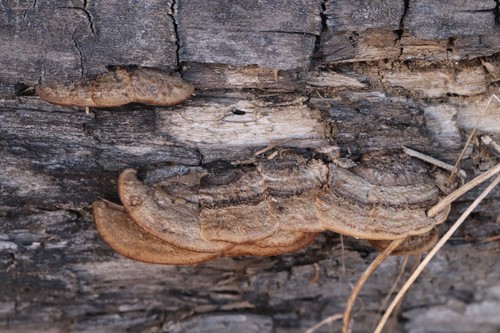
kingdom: Fungi
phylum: Basidiomycota
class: Agaricomycetes
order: Gloeophyllales
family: Gloeophyllaceae
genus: Gloeophyllum
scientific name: Gloeophyllum protractum
